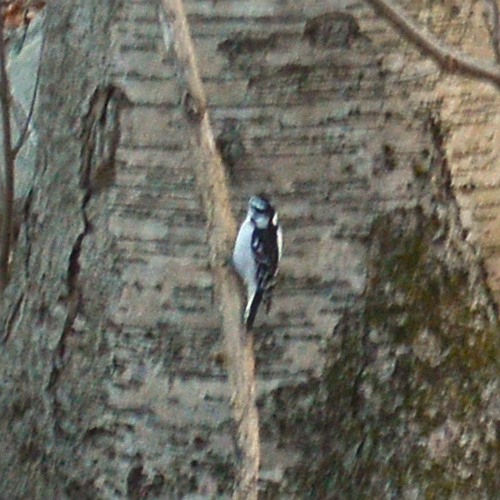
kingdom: Animalia
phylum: Chordata
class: Aves
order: Piciformes
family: Picidae
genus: Dryobates
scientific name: Dryobates pubescens
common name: Downy woodpecker
